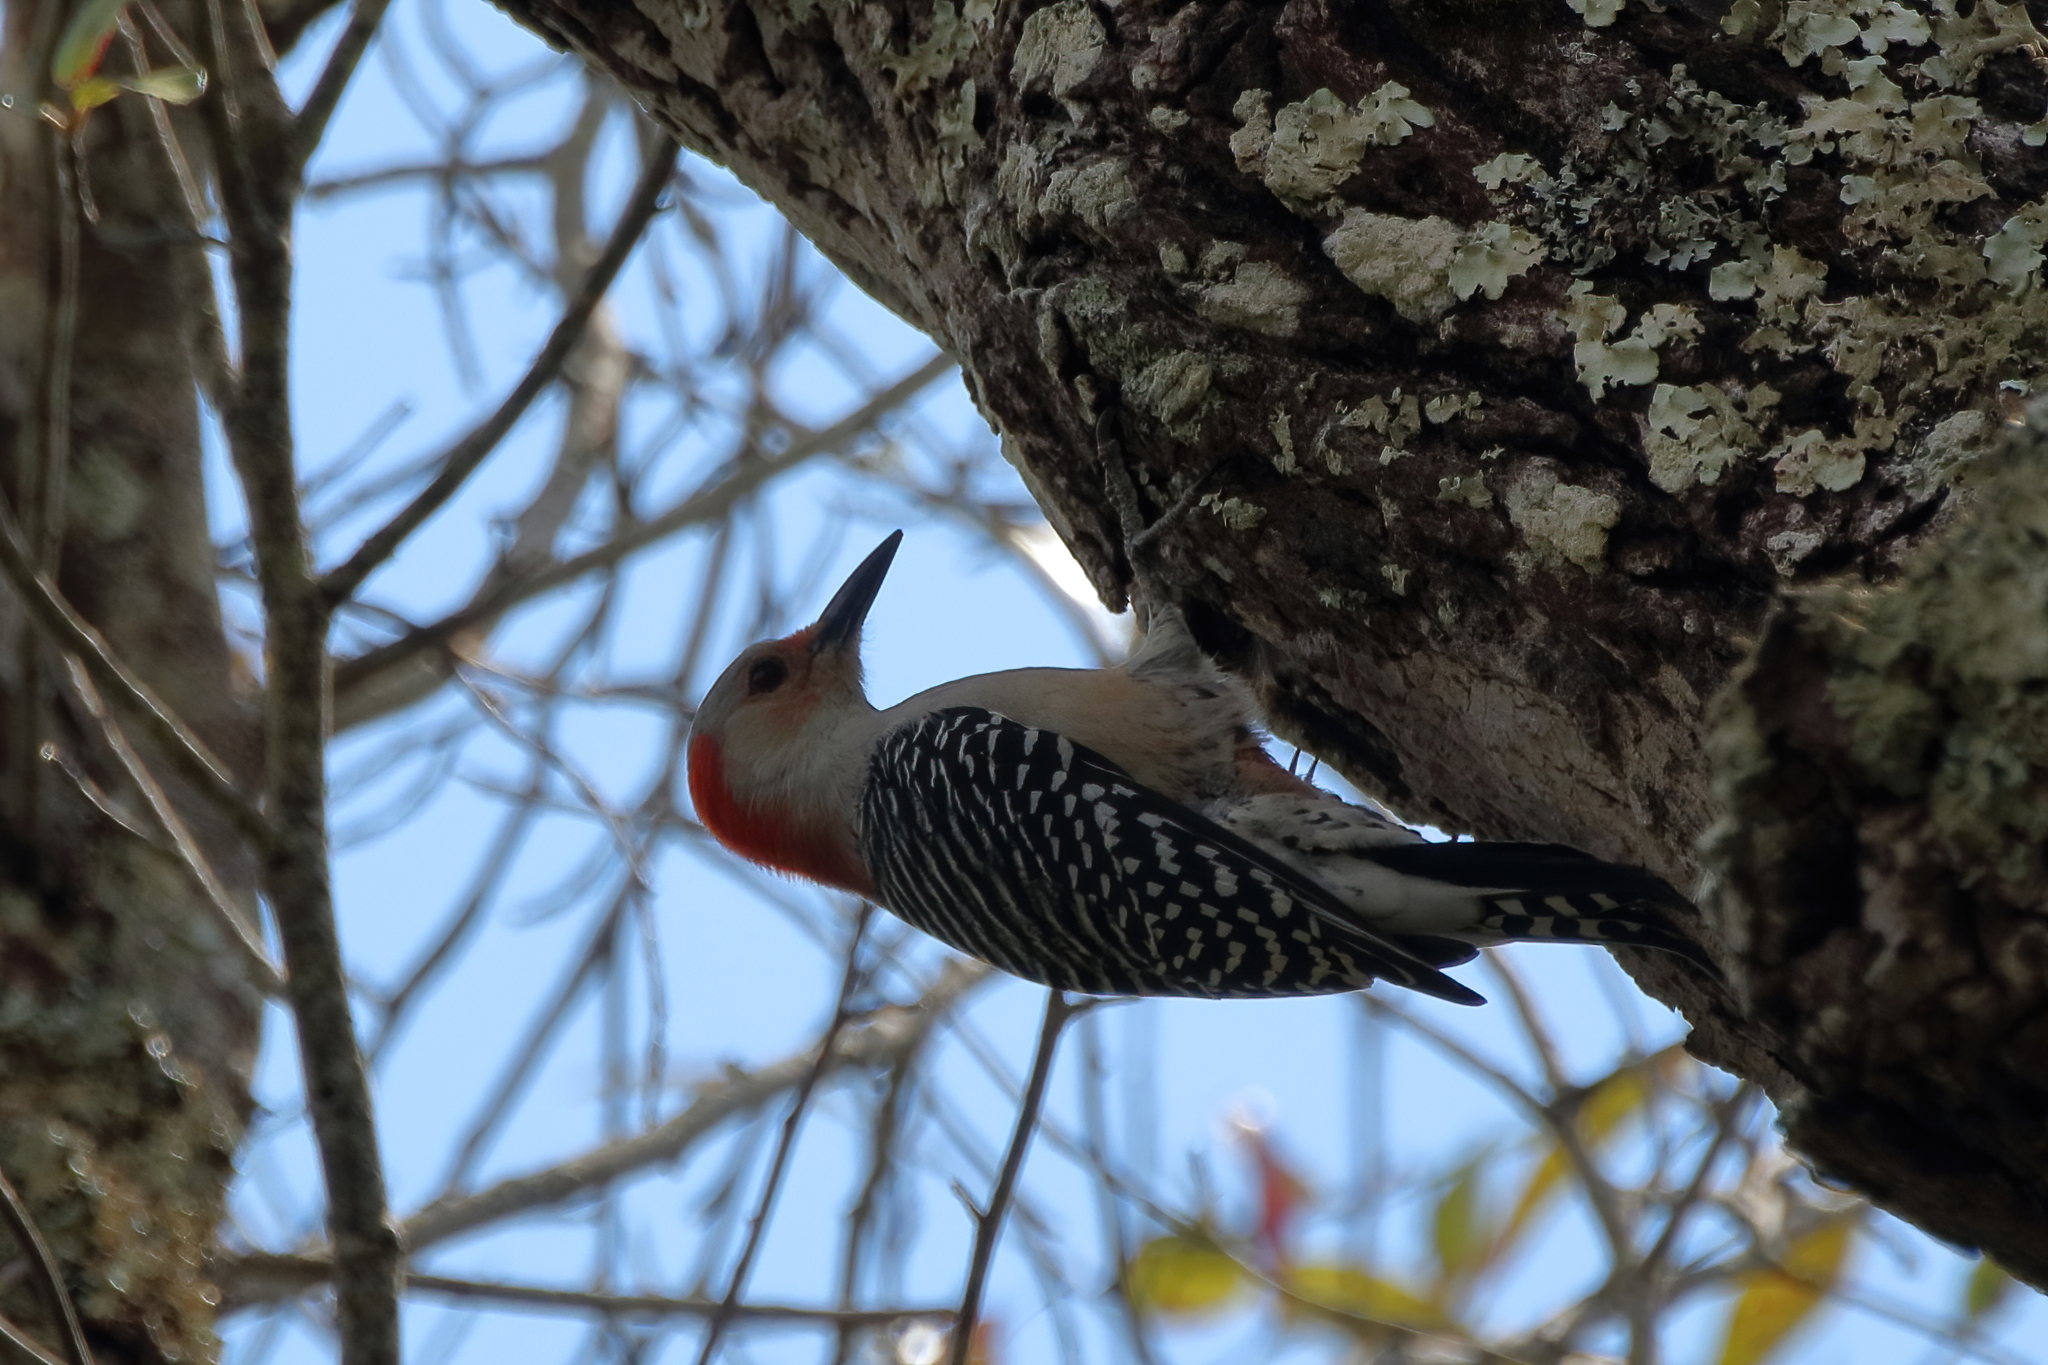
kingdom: Animalia
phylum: Chordata
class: Aves
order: Piciformes
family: Picidae
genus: Melanerpes
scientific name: Melanerpes carolinus
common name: Red-bellied woodpecker
